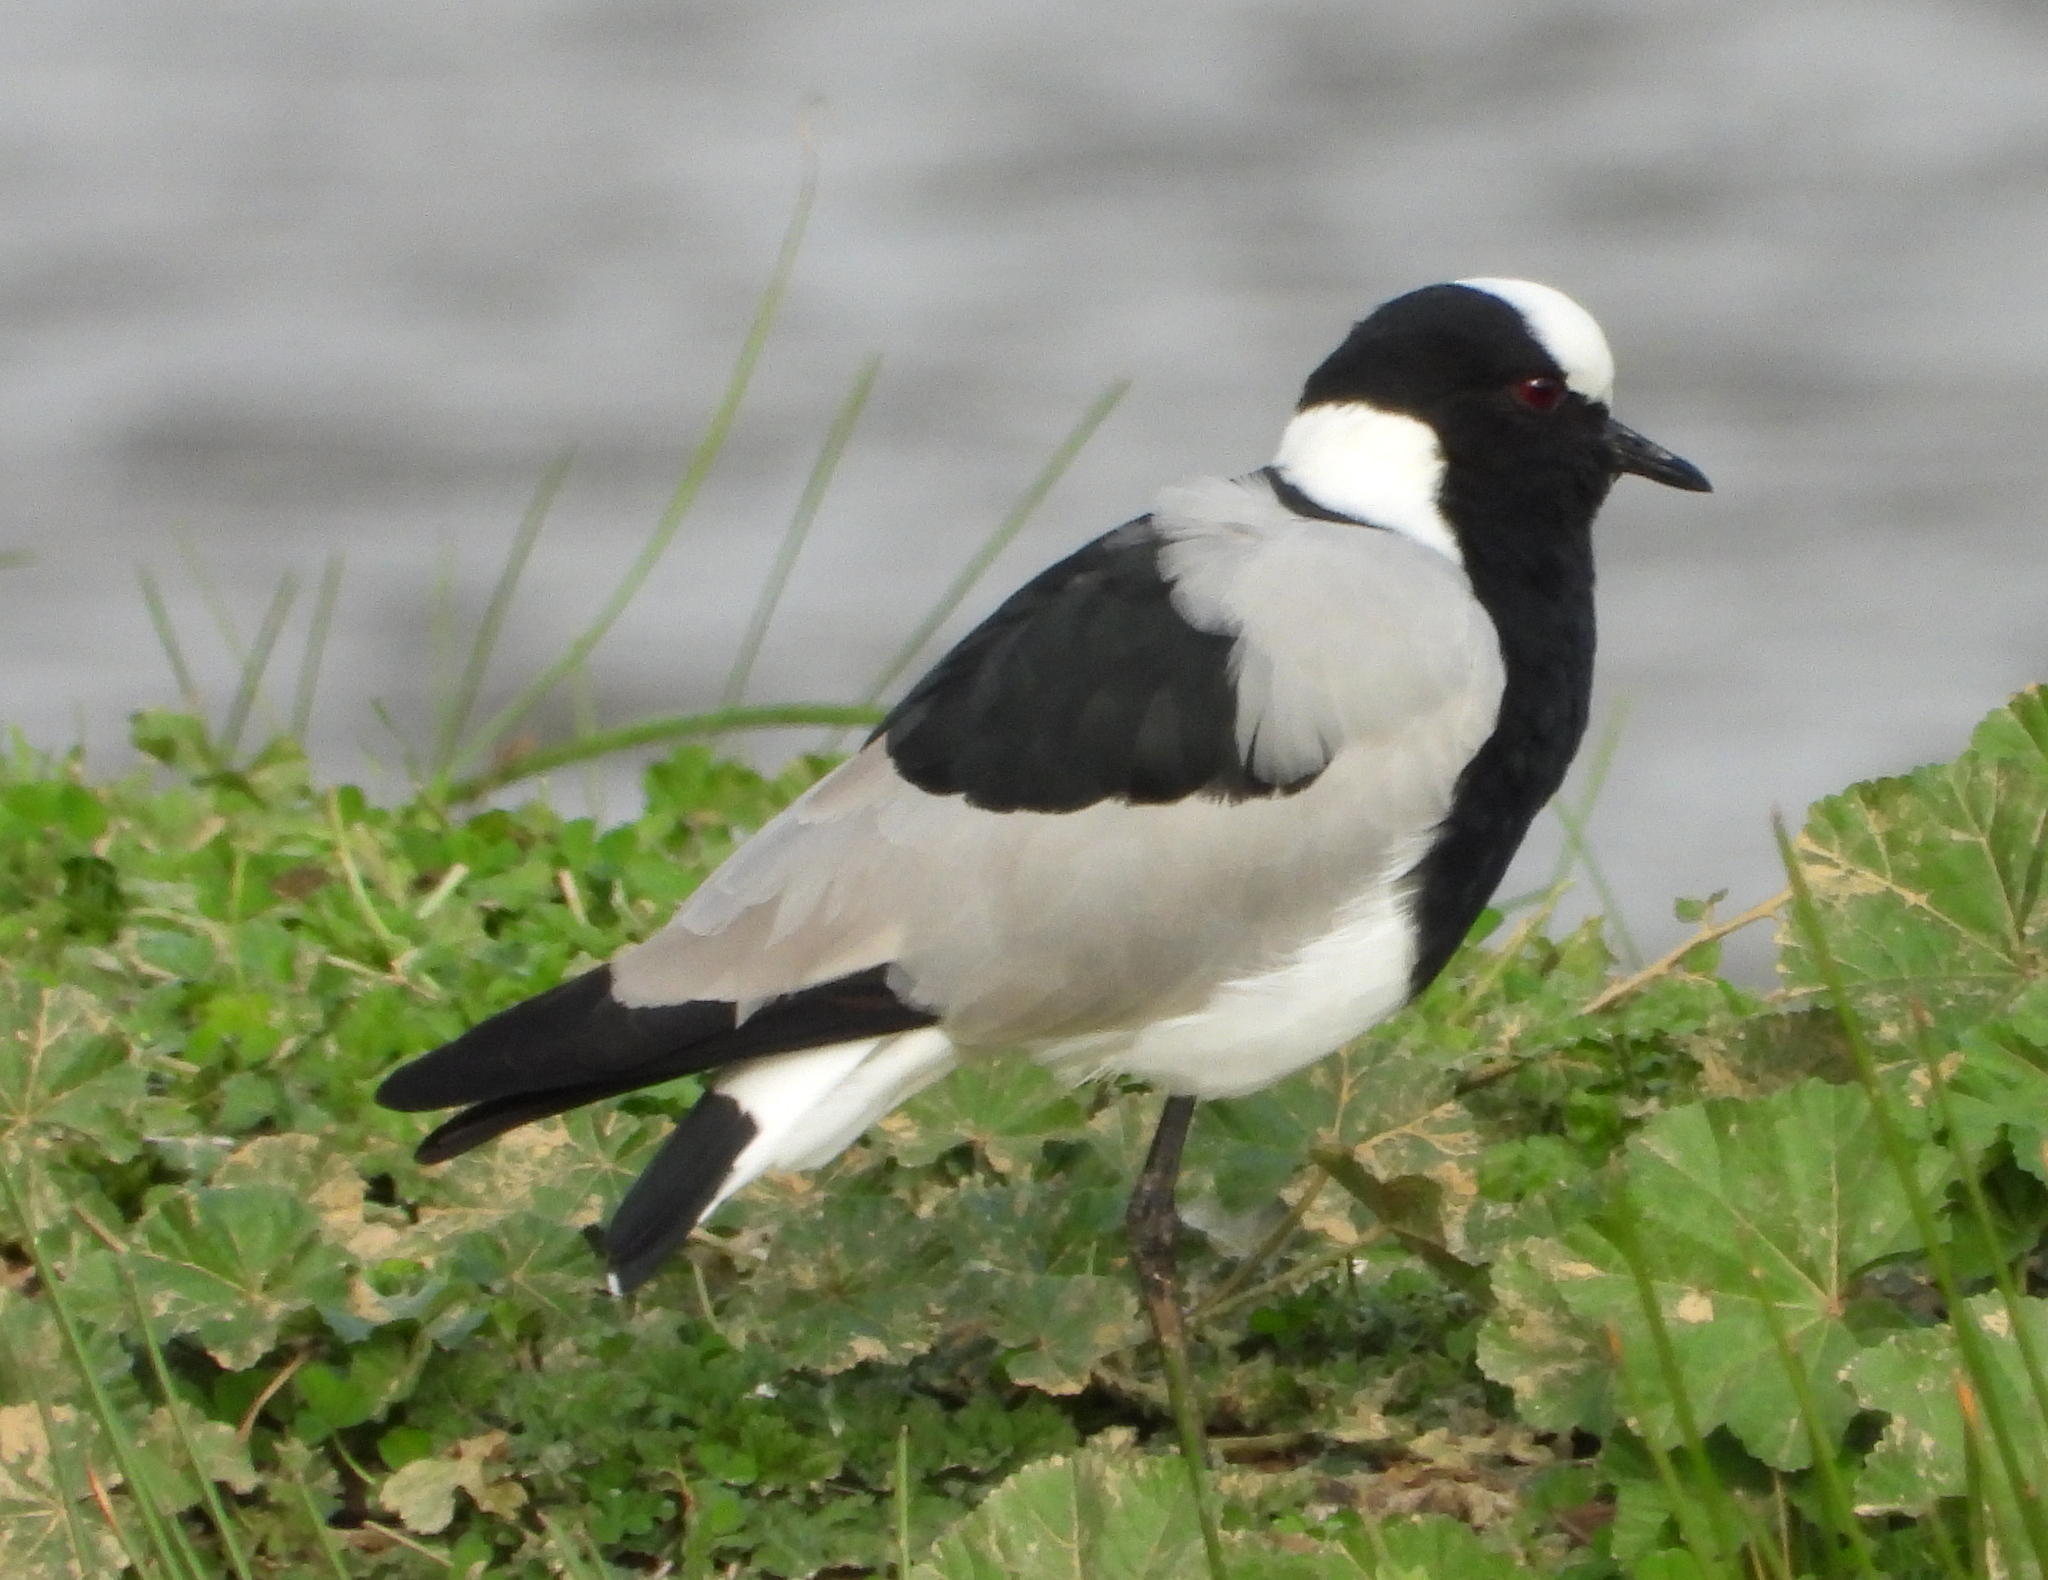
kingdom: Animalia
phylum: Chordata
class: Aves
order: Charadriiformes
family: Charadriidae
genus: Vanellus
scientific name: Vanellus armatus
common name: Blacksmith lapwing
